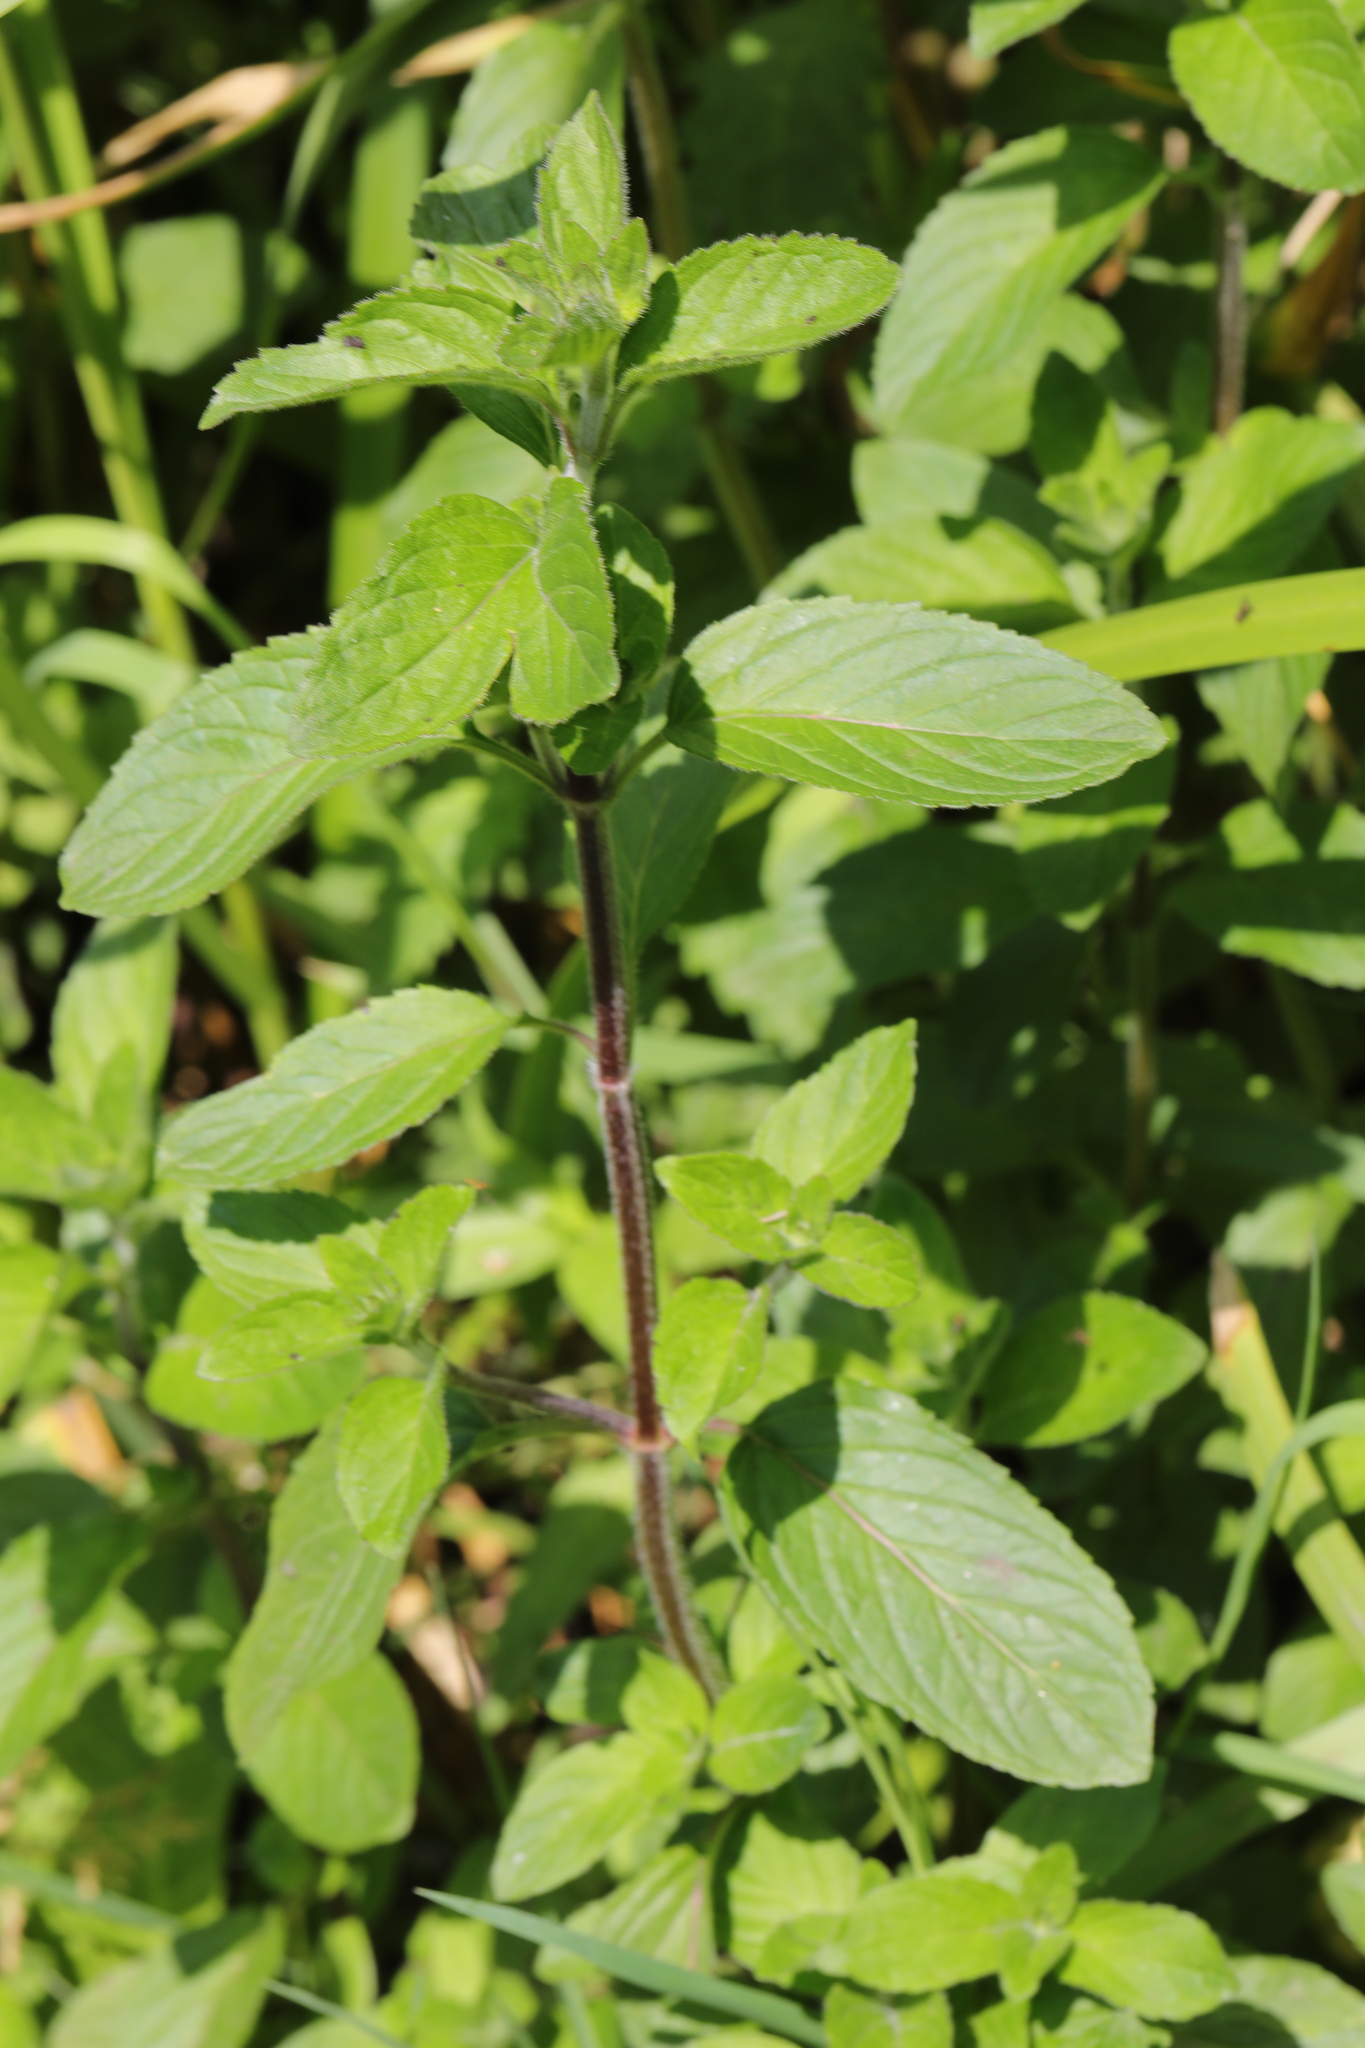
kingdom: Plantae
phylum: Tracheophyta
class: Magnoliopsida
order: Lamiales
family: Lamiaceae
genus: Mentha
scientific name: Mentha aquatica
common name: Water mint
